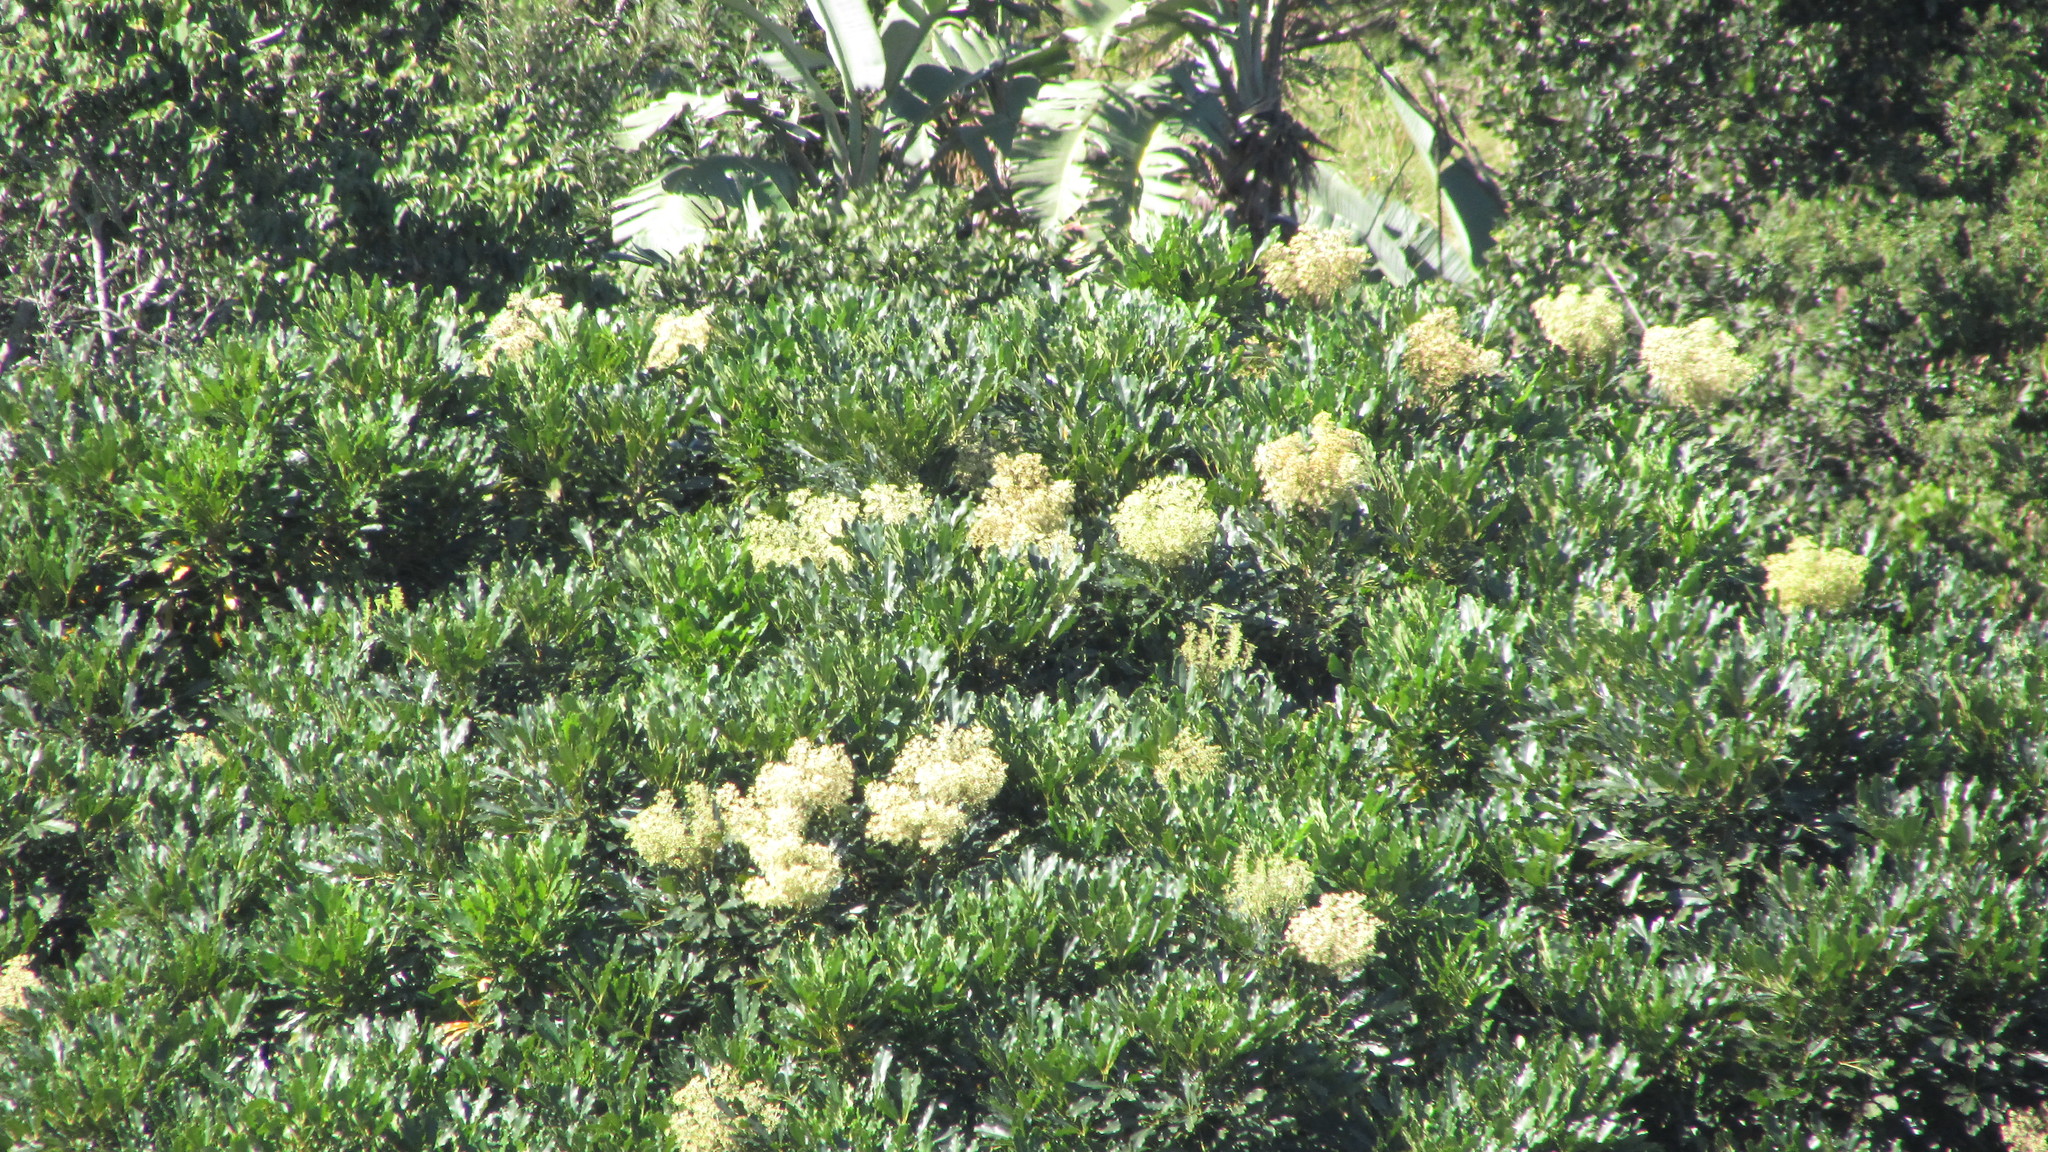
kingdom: Plantae
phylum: Tracheophyta
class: Magnoliopsida
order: Apiales
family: Araliaceae
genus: Neocussonia
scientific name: Neocussonia umbellifera
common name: False cabbage tree
